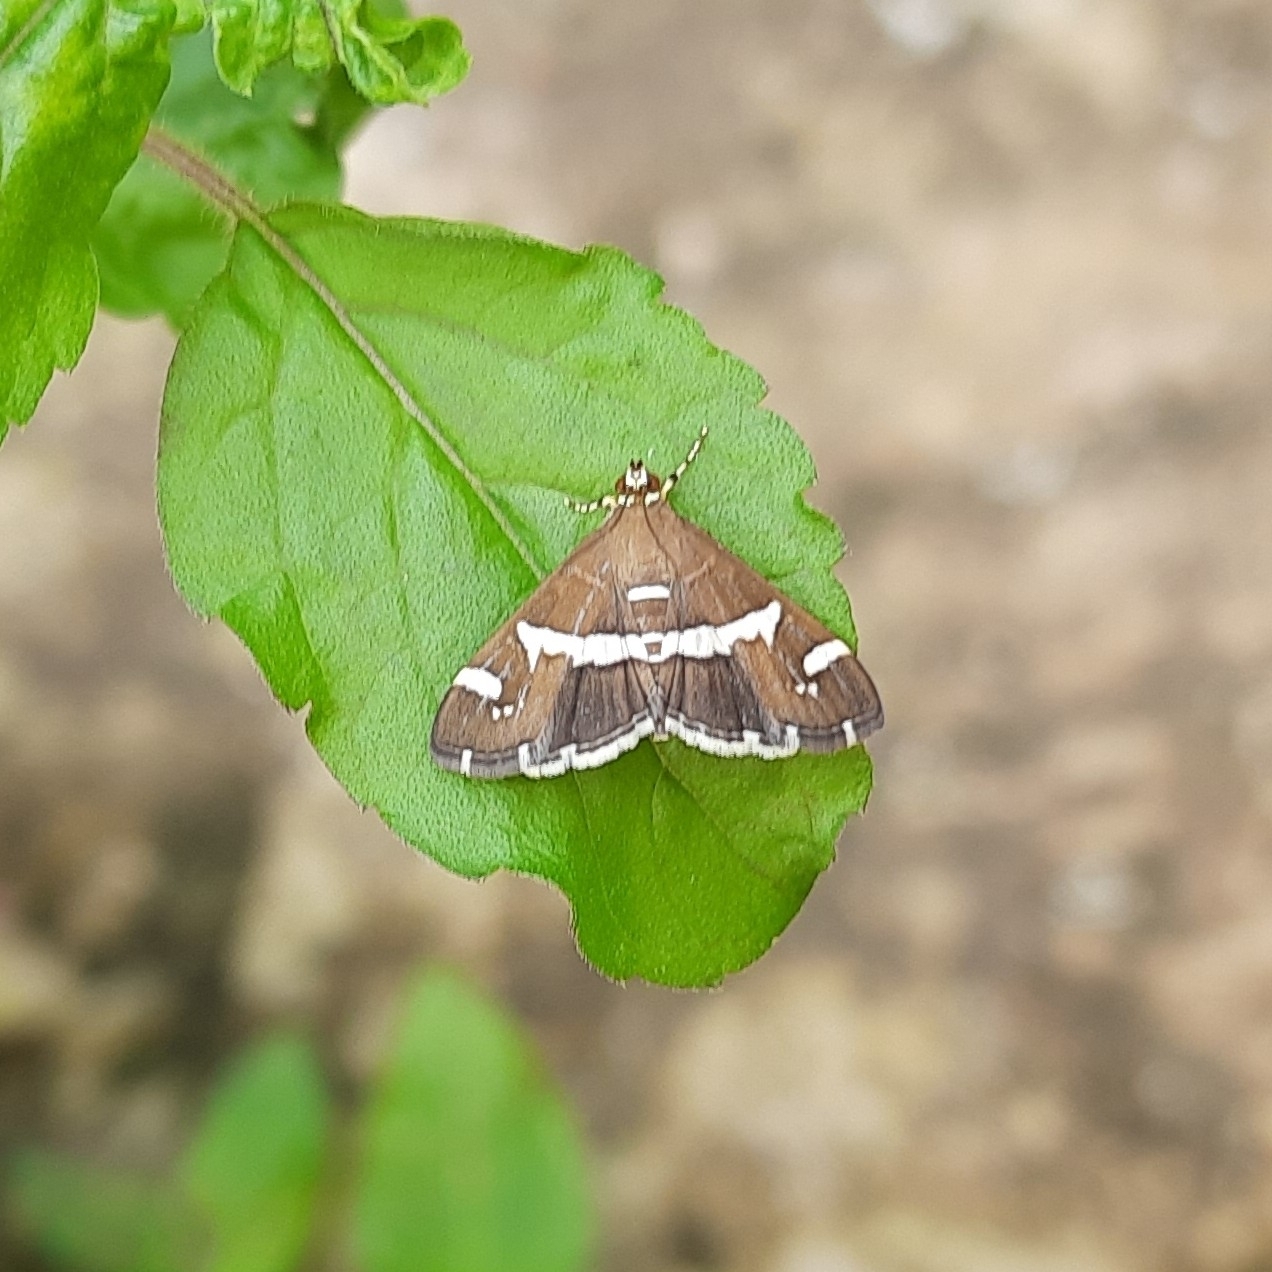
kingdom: Animalia
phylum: Arthropoda
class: Insecta
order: Lepidoptera
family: Crambidae
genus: Spoladea
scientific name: Spoladea recurvalis
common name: Beet webworm moth
